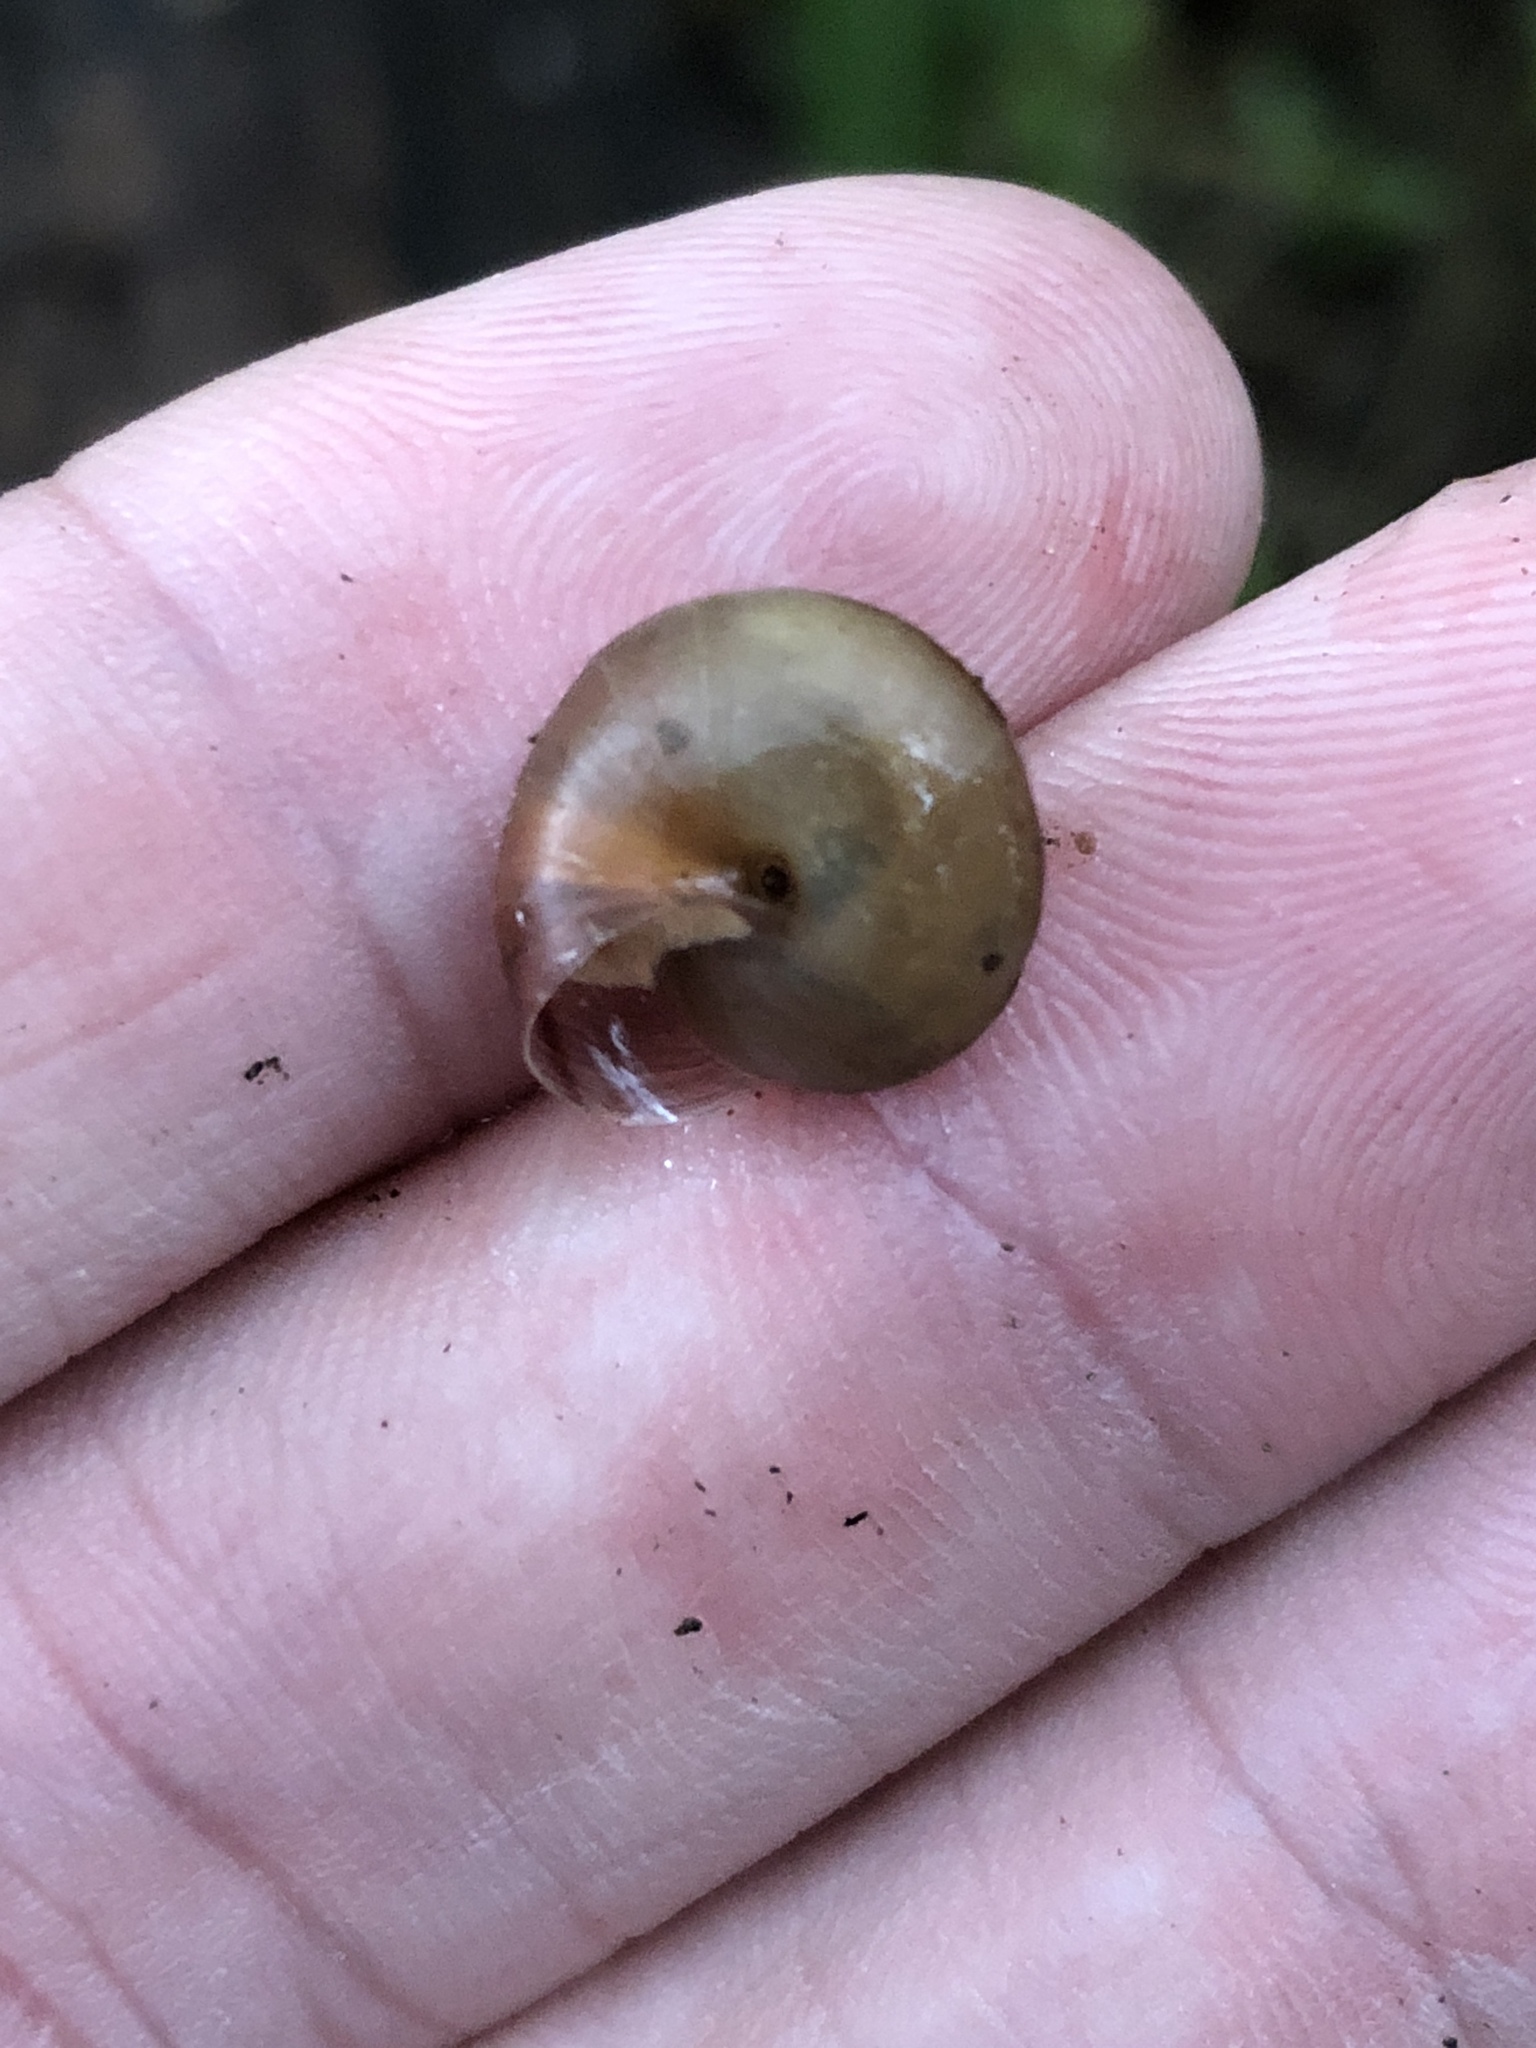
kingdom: Animalia
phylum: Mollusca
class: Gastropoda
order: Stylommatophora
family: Camaenidae
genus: Bradybaena
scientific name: Bradybaena similaris
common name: Asian trampsnail
